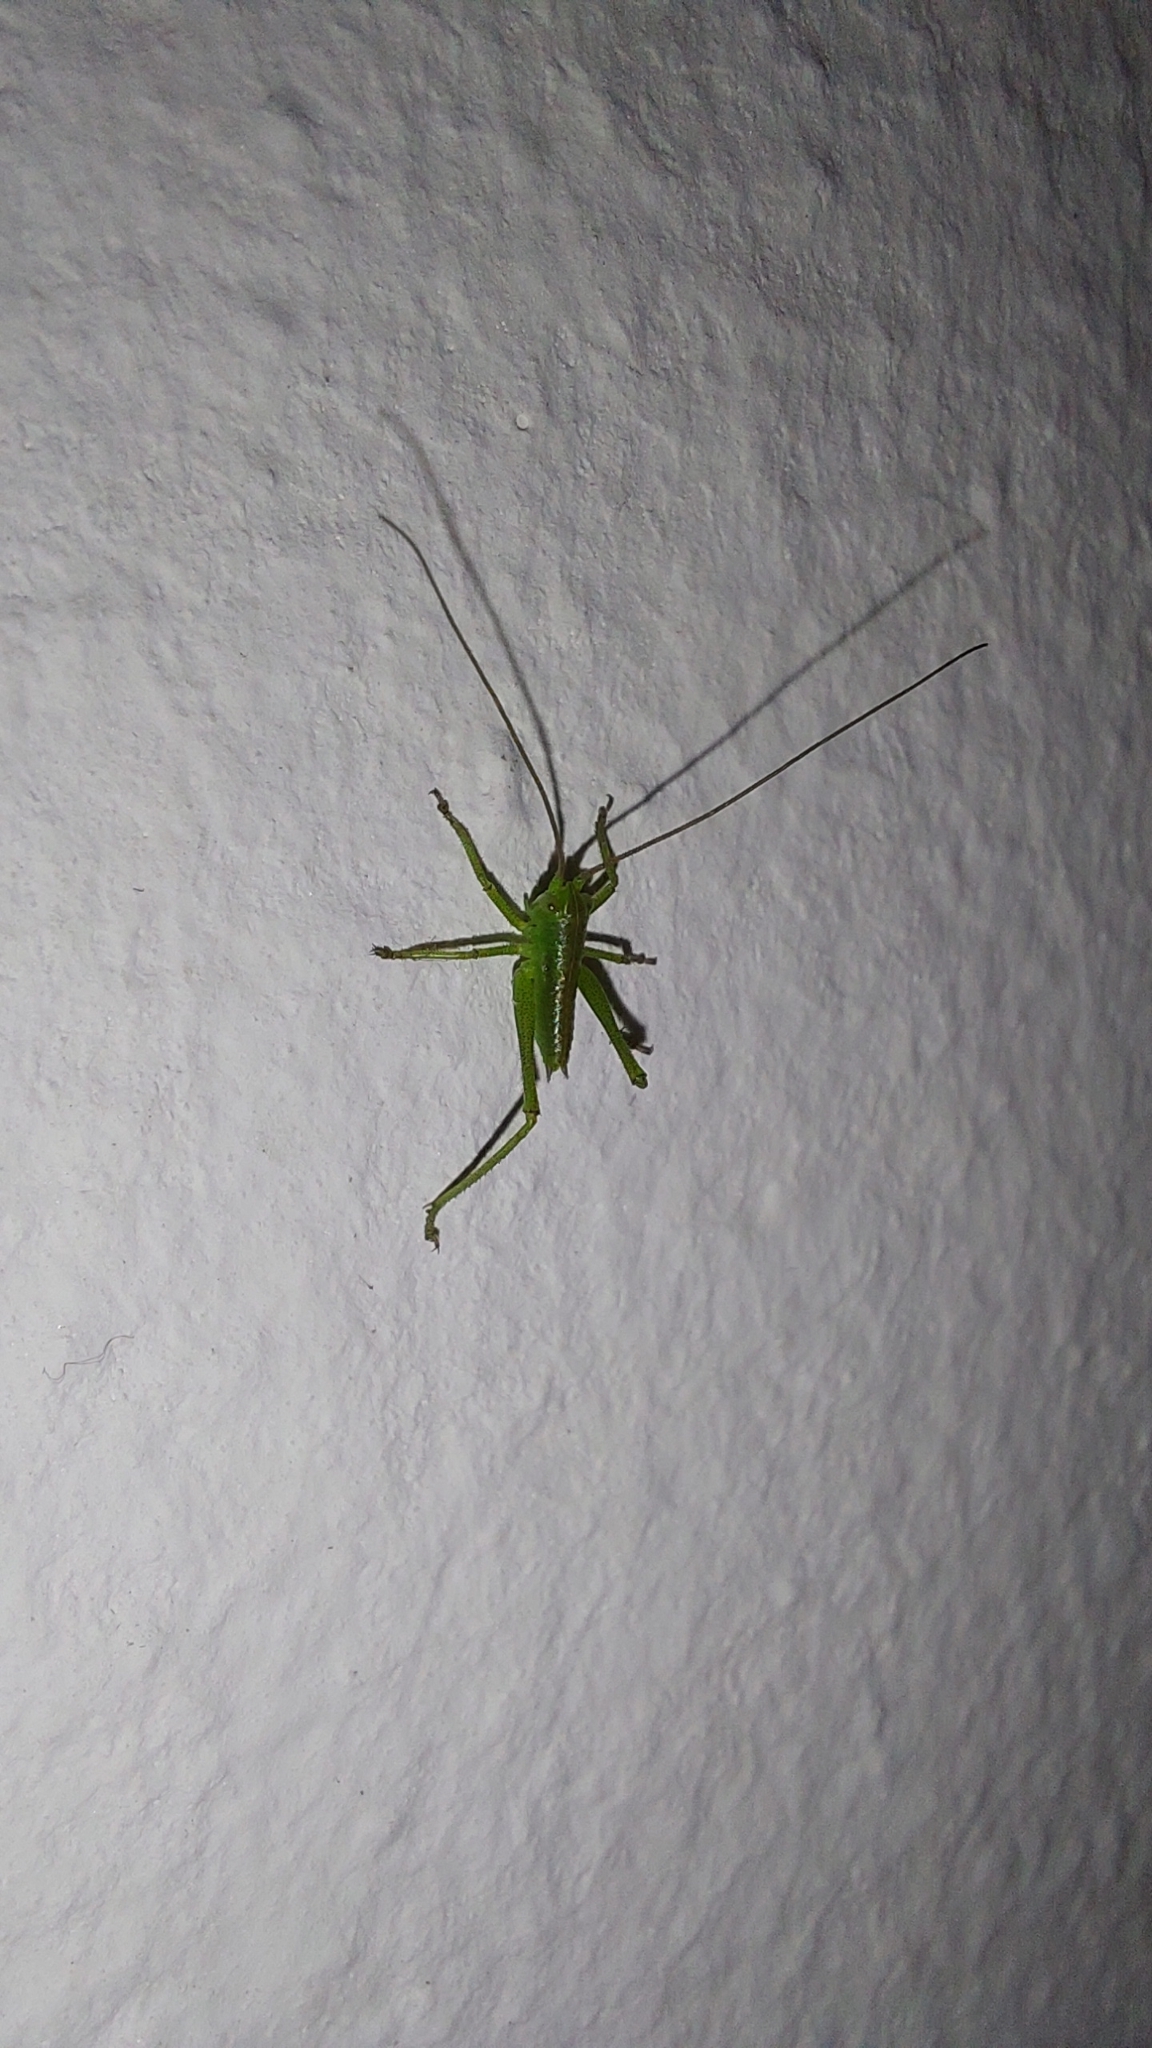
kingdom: Animalia
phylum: Arthropoda
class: Insecta
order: Orthoptera
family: Tettigoniidae
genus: Tettigonia
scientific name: Tettigonia viridissima
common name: Great green bush-cricket
